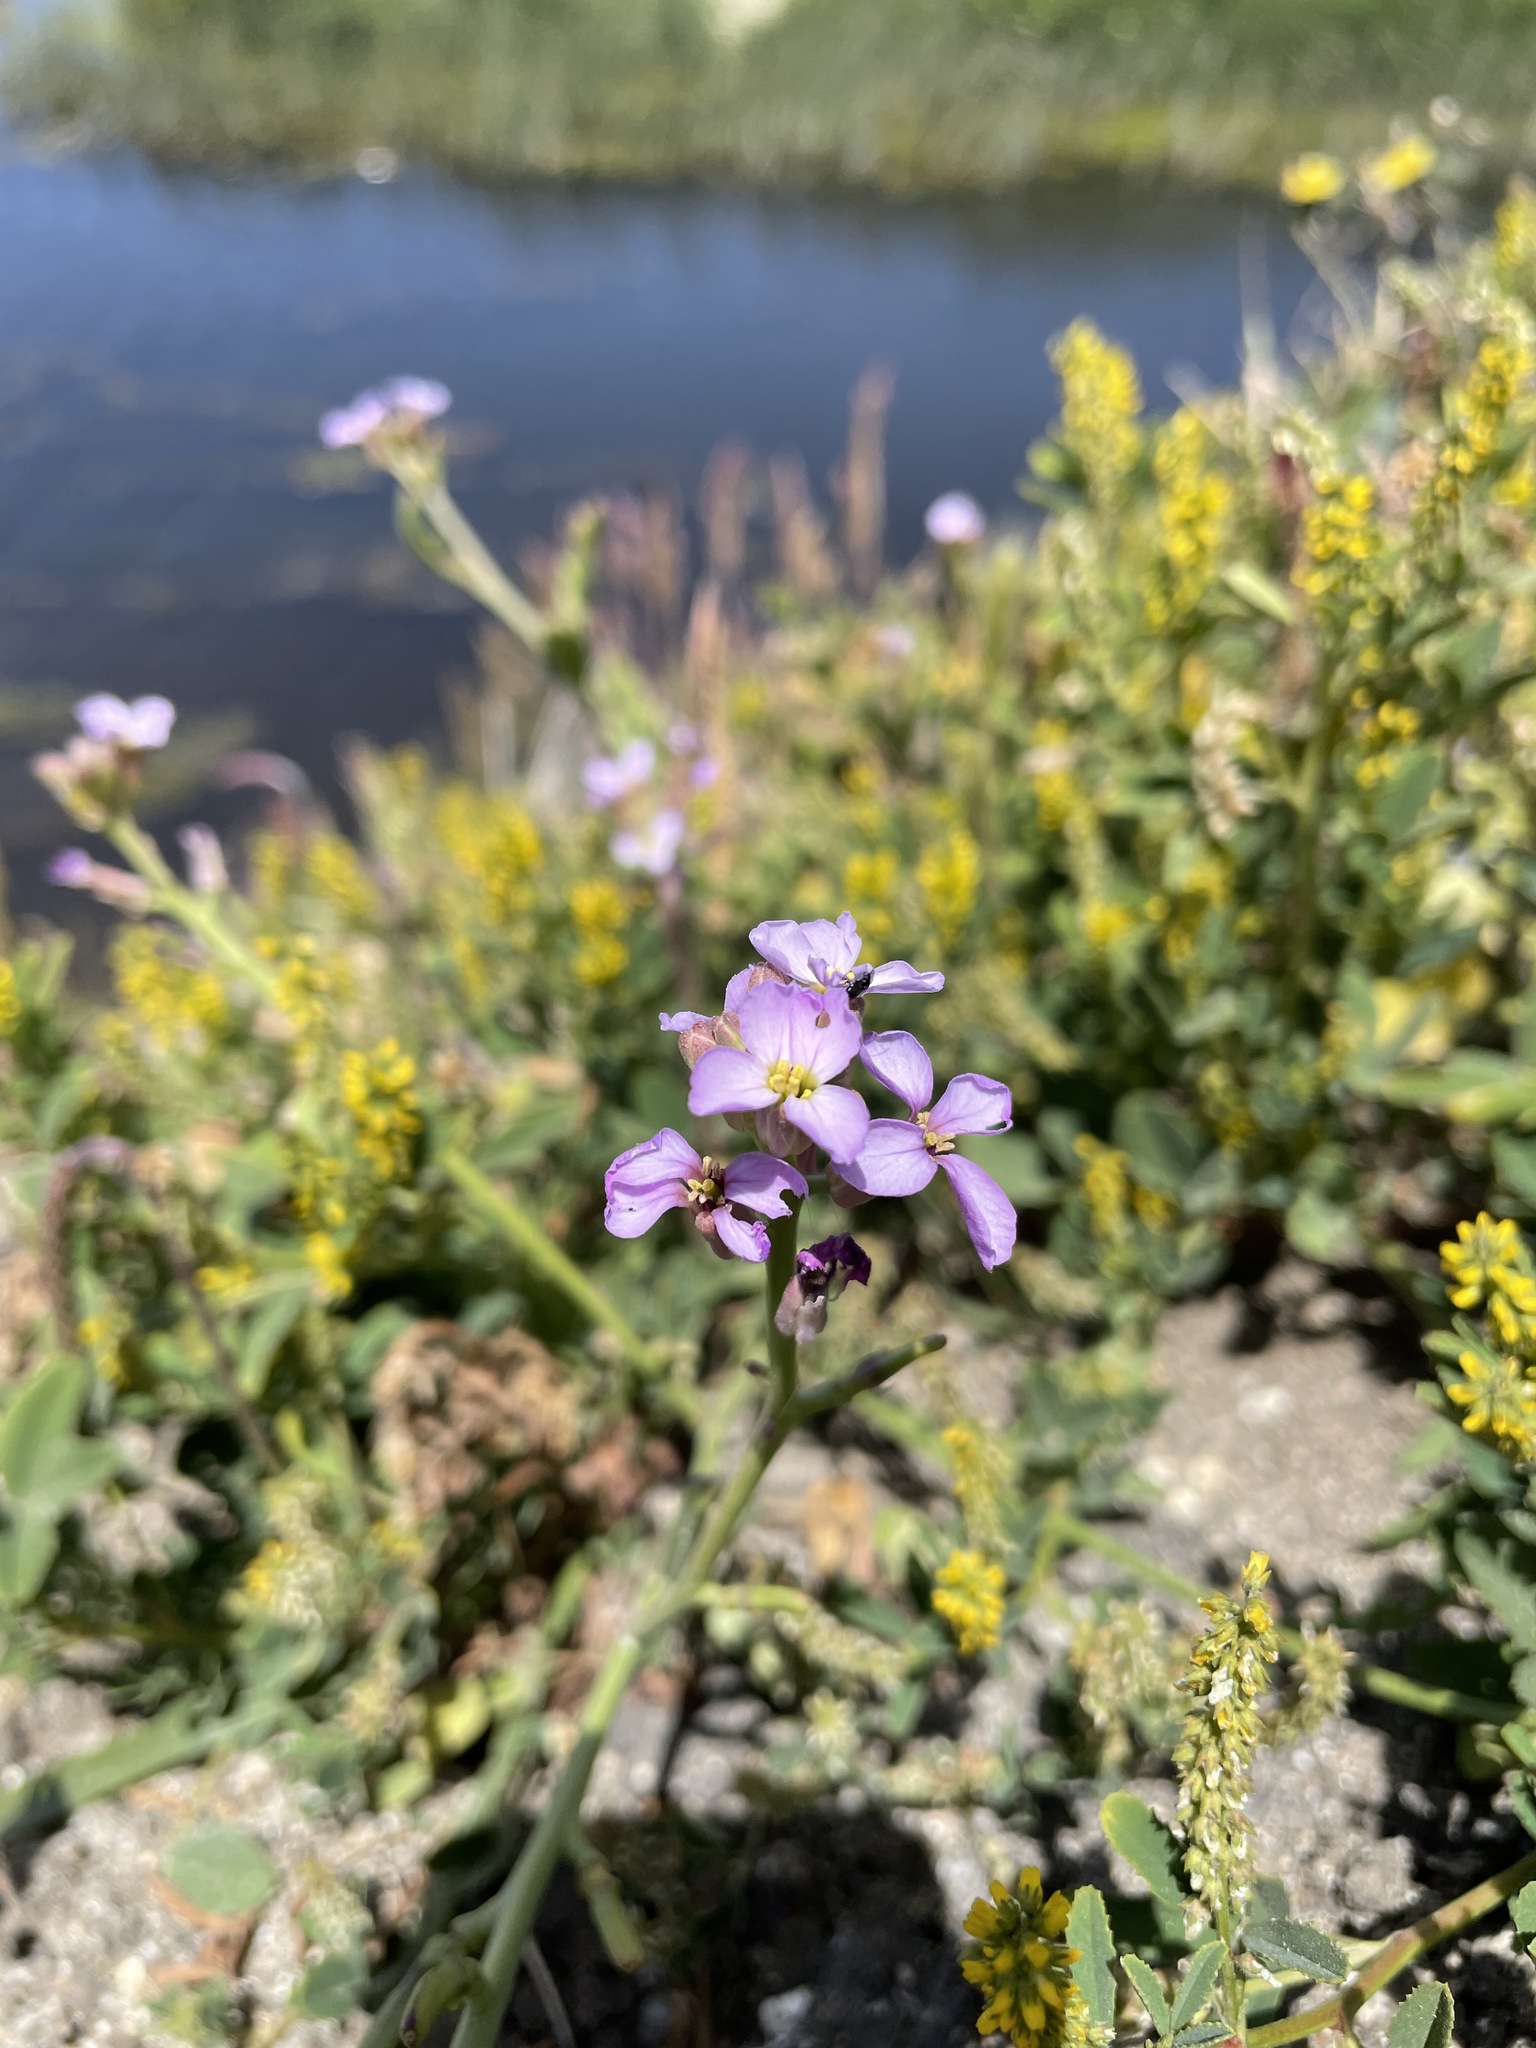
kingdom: Plantae
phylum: Tracheophyta
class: Magnoliopsida
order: Brassicales
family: Brassicaceae
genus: Cakile
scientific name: Cakile maritima
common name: Sea rocket
